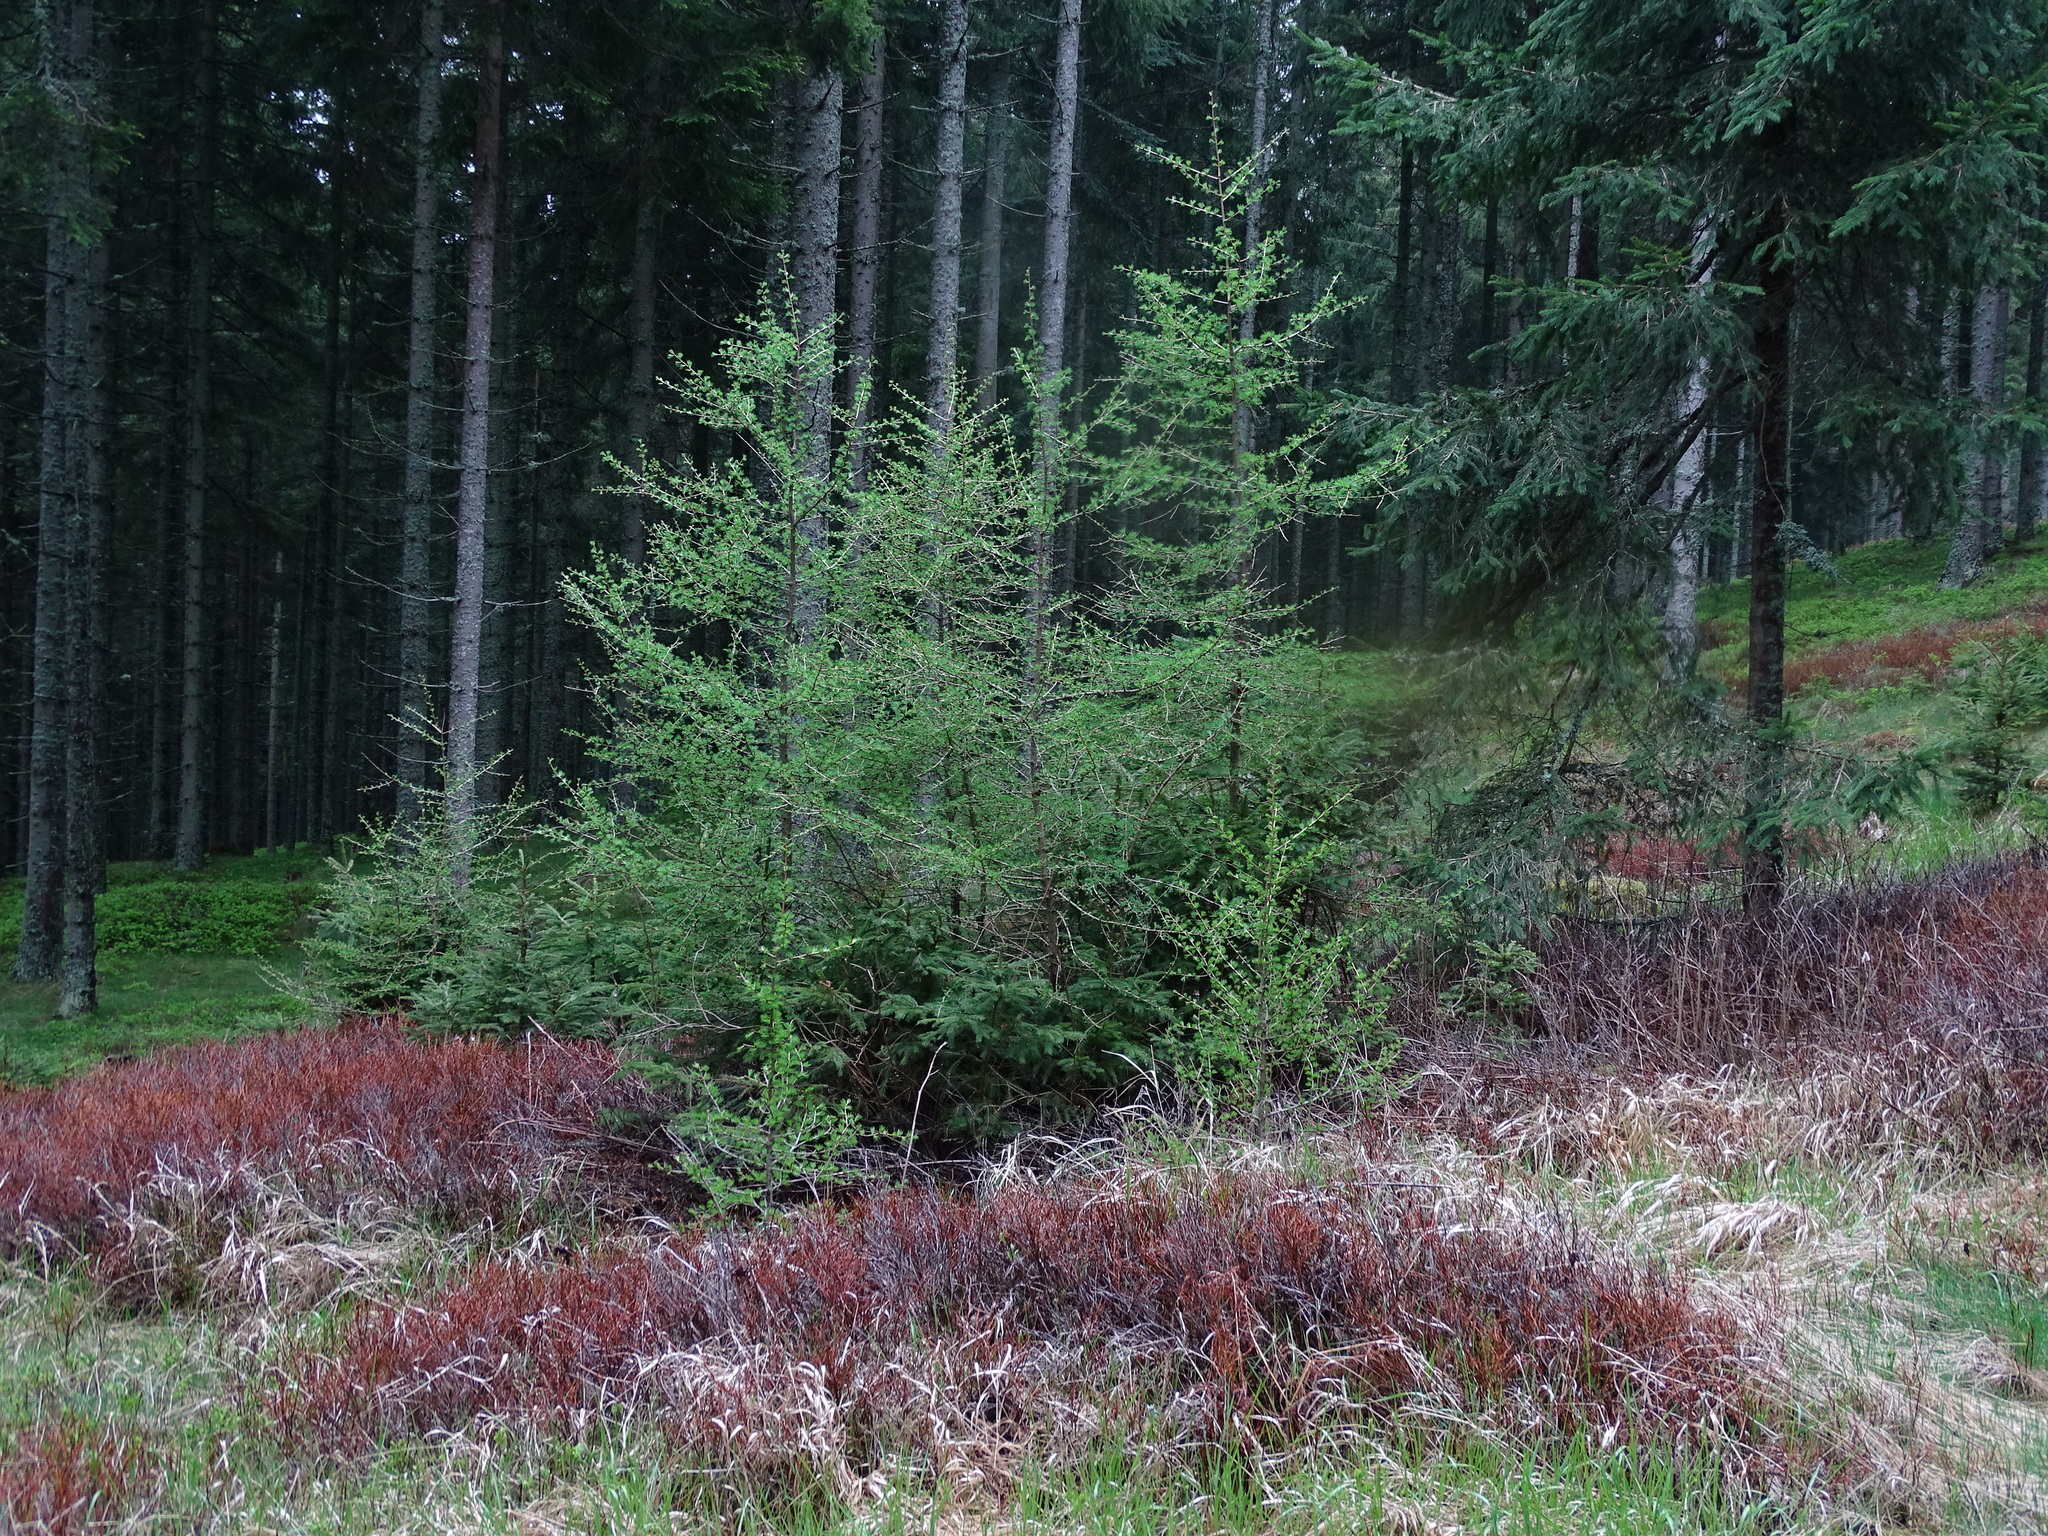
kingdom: Plantae
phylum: Tracheophyta
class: Pinopsida
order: Pinales
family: Pinaceae
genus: Larix
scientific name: Larix decidua
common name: European larch
